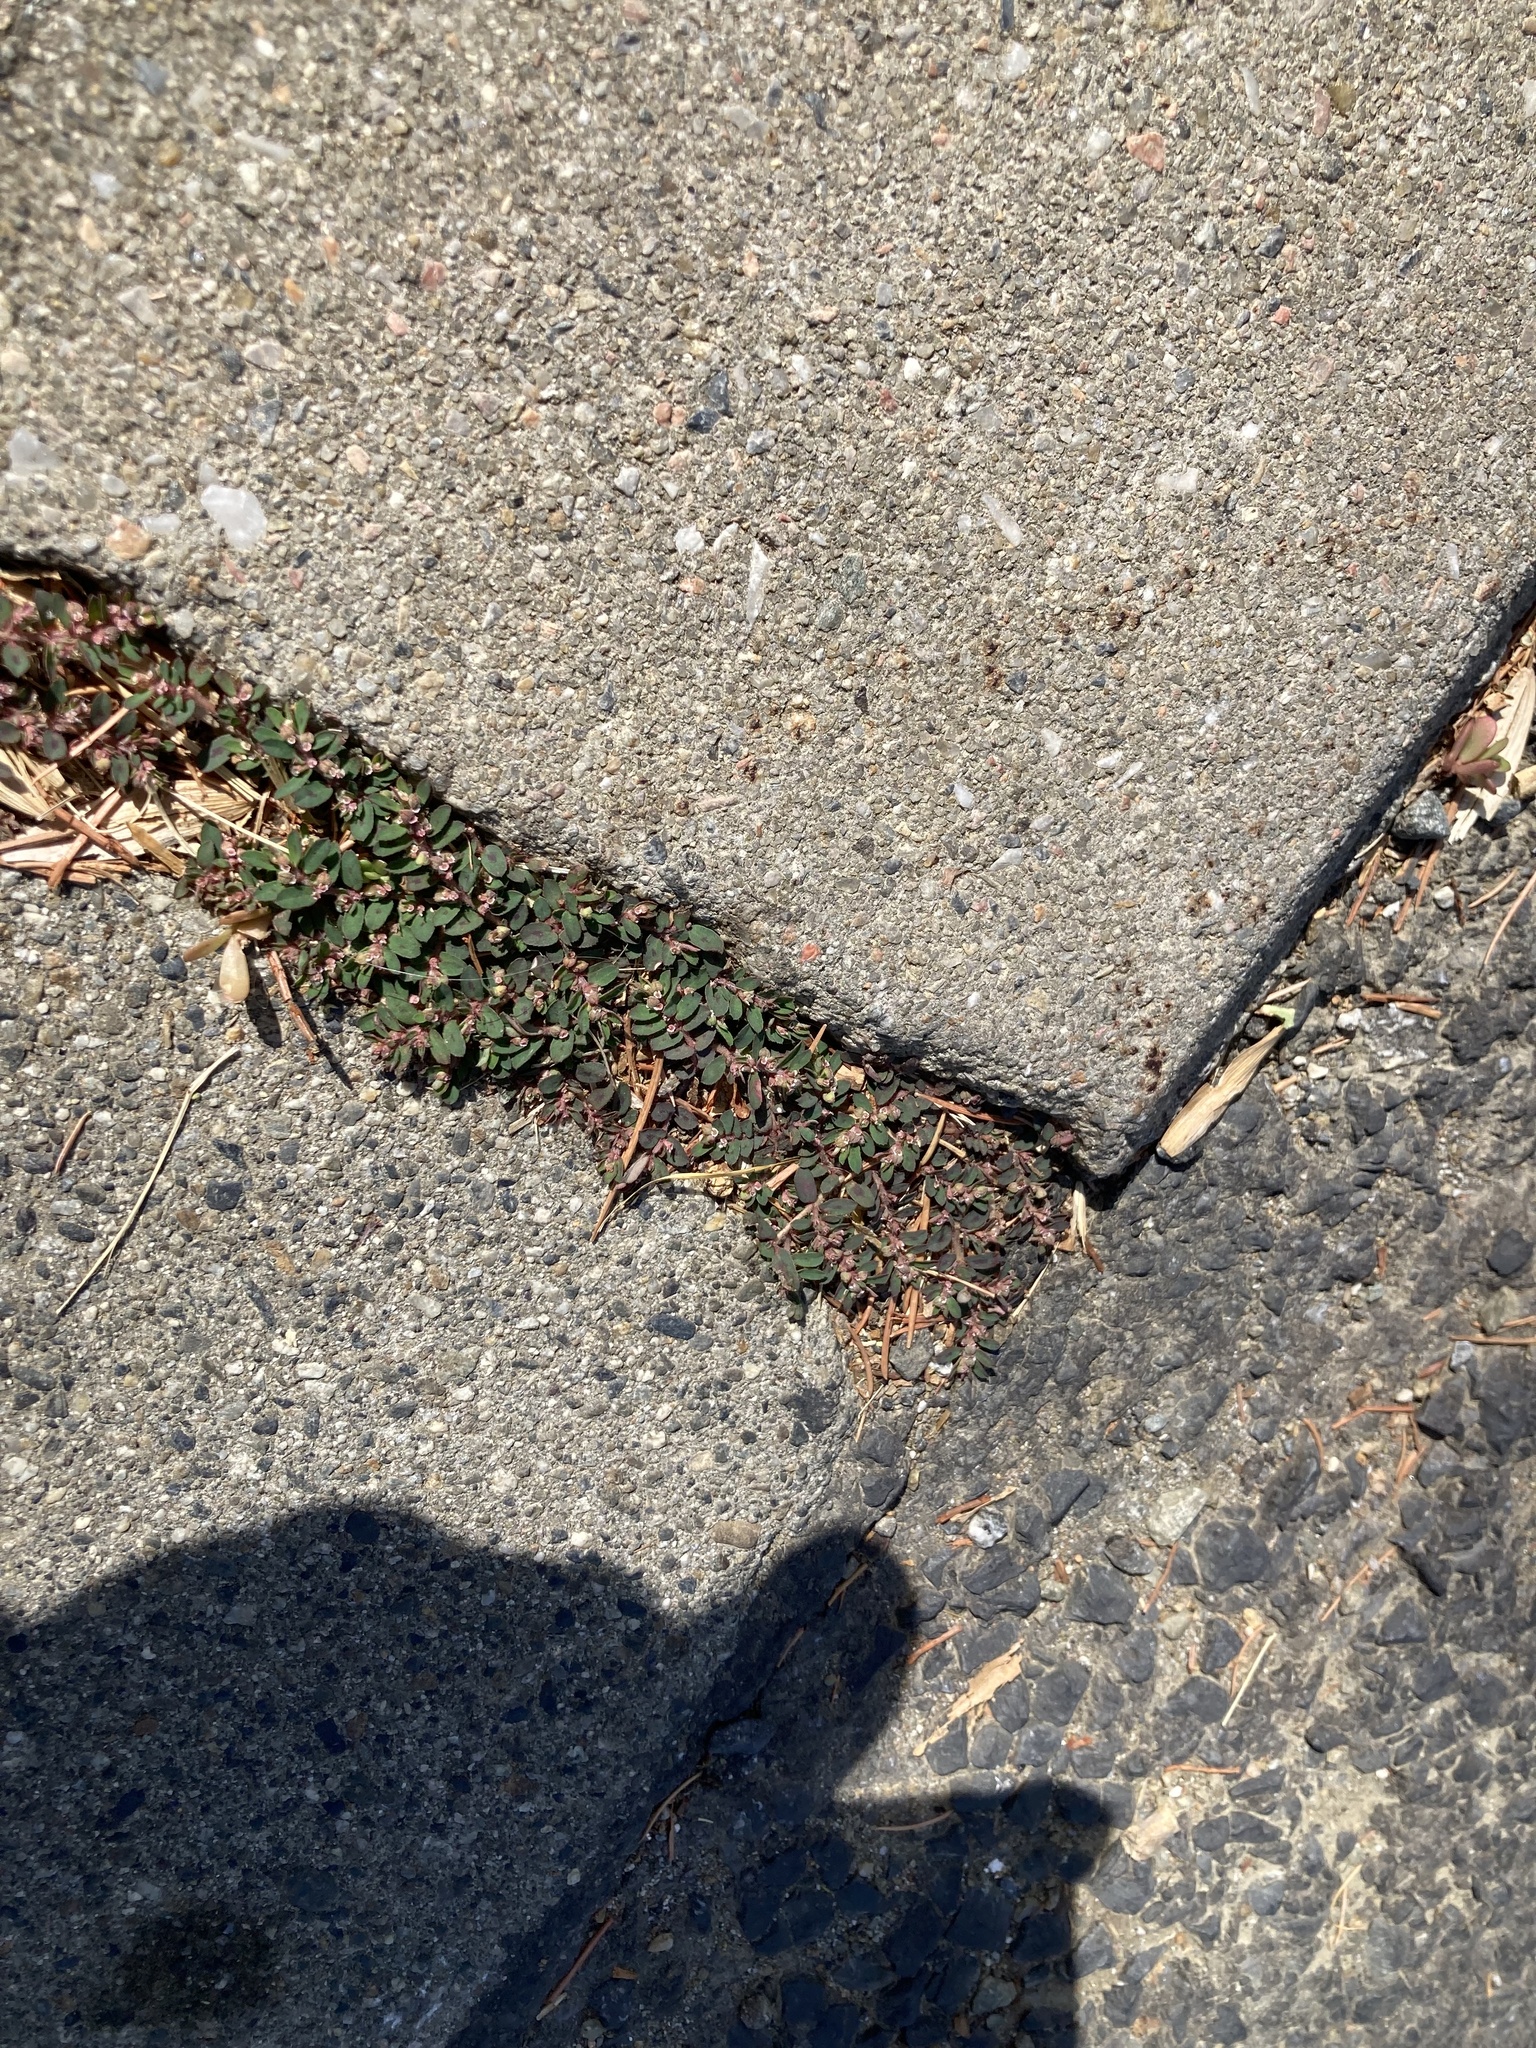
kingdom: Plantae
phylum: Tracheophyta
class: Magnoliopsida
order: Malpighiales
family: Euphorbiaceae
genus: Euphorbia
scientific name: Euphorbia maculata
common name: Spotted spurge
